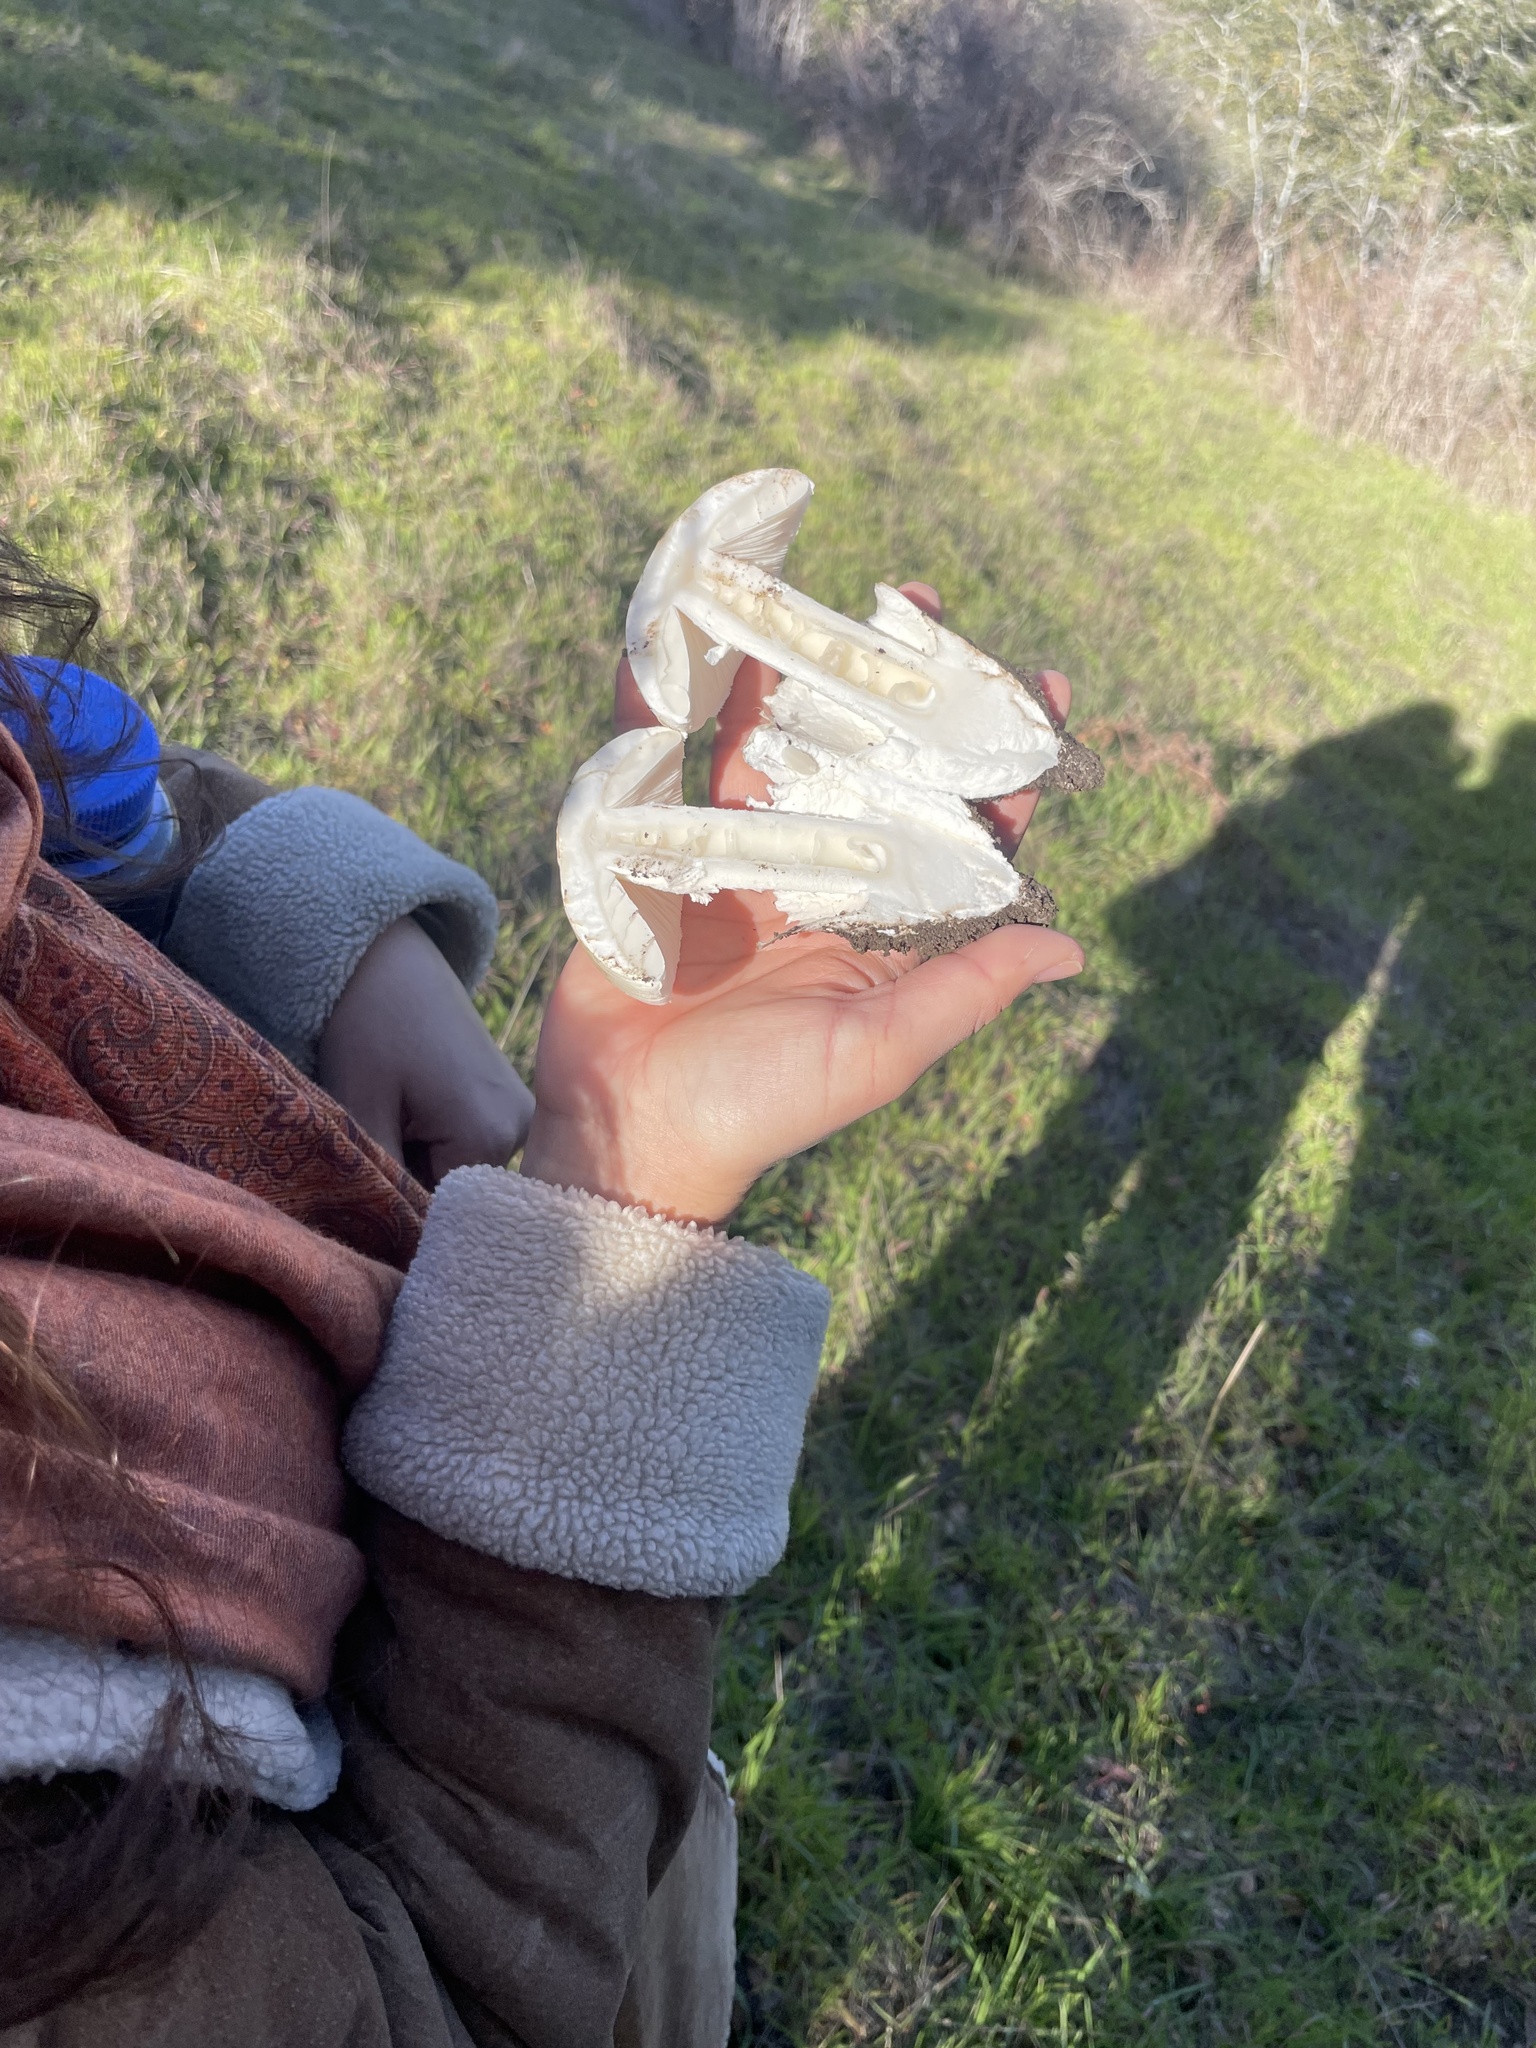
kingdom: Fungi
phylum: Basidiomycota
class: Agaricomycetes
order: Agaricales
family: Amanitaceae
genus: Amanita
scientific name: Amanita ocreata
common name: Western destroying angel
